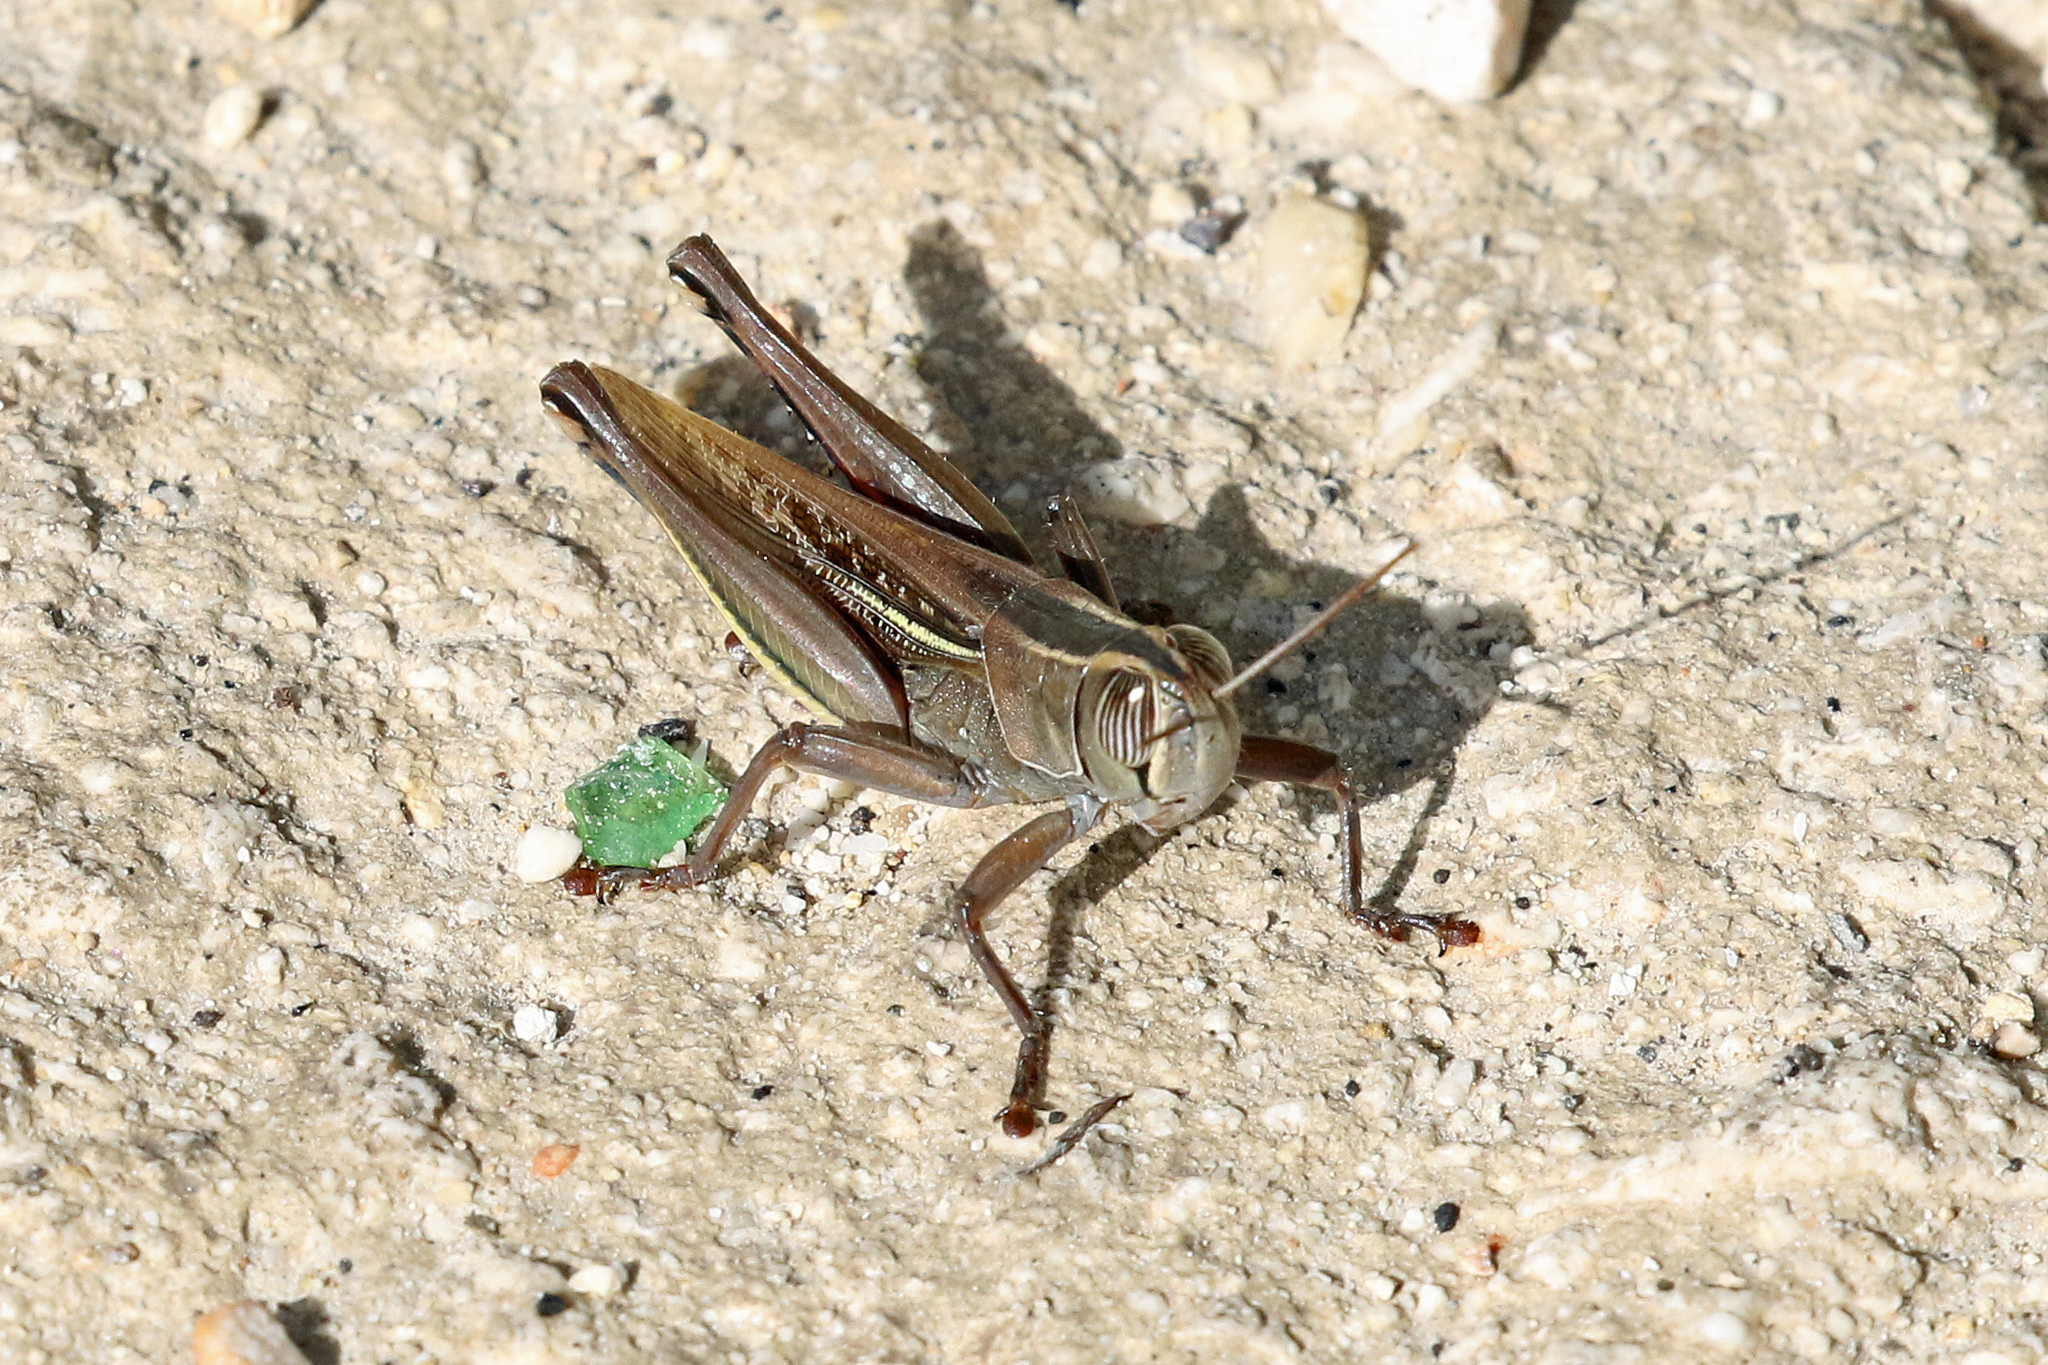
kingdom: Animalia
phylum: Arthropoda
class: Insecta
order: Orthoptera
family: Acrididae
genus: Eyprepocnemis
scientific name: Eyprepocnemis plorans
